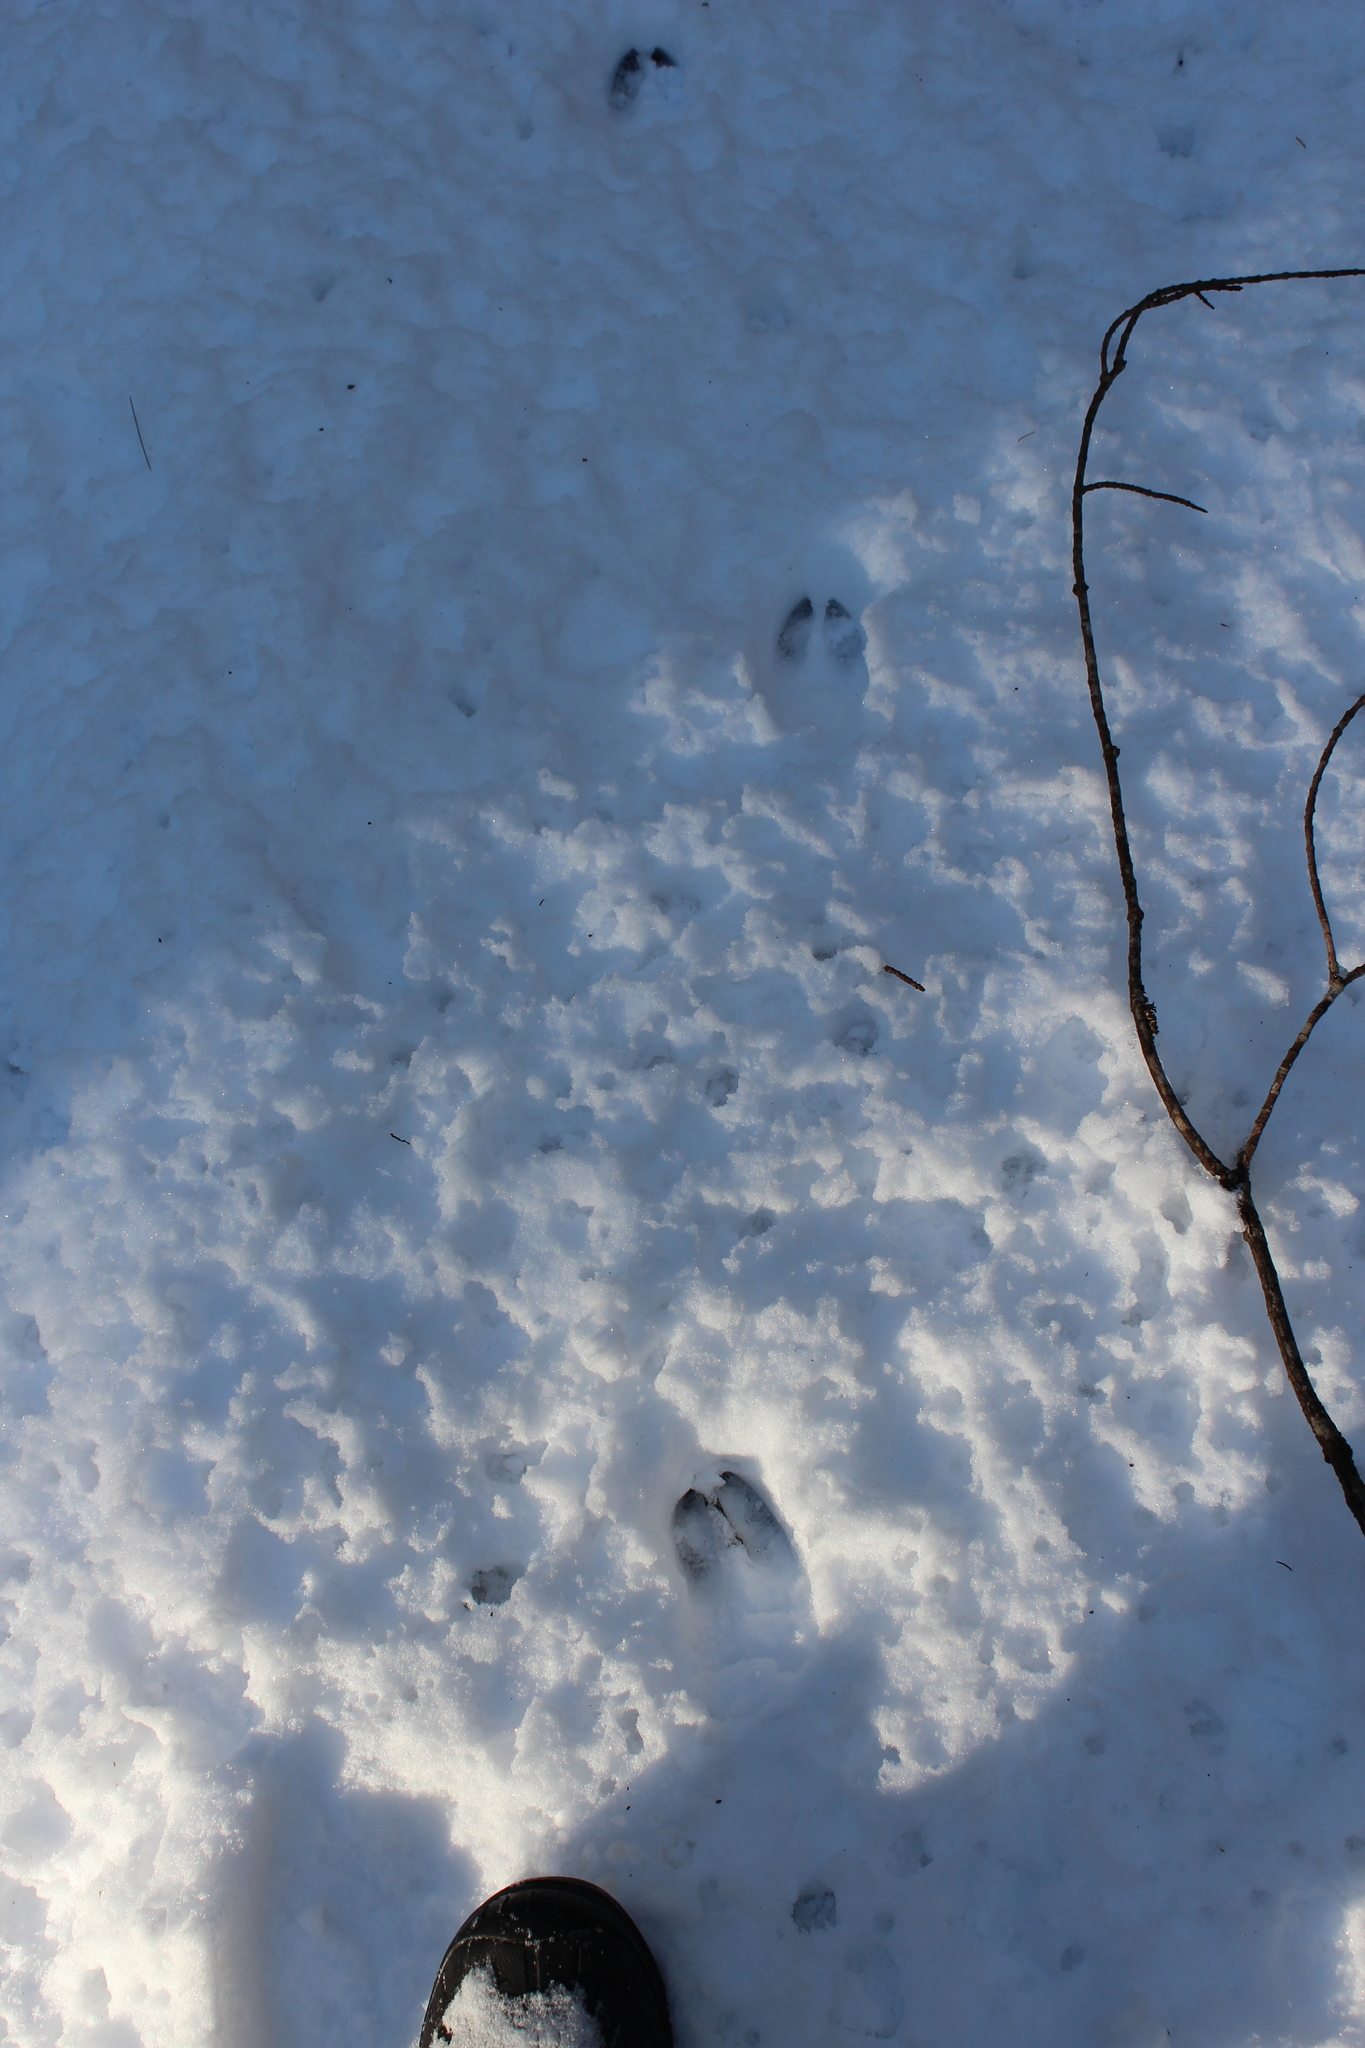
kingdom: Animalia
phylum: Chordata
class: Mammalia
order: Artiodactyla
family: Cervidae
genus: Odocoileus
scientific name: Odocoileus virginianus
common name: White-tailed deer
